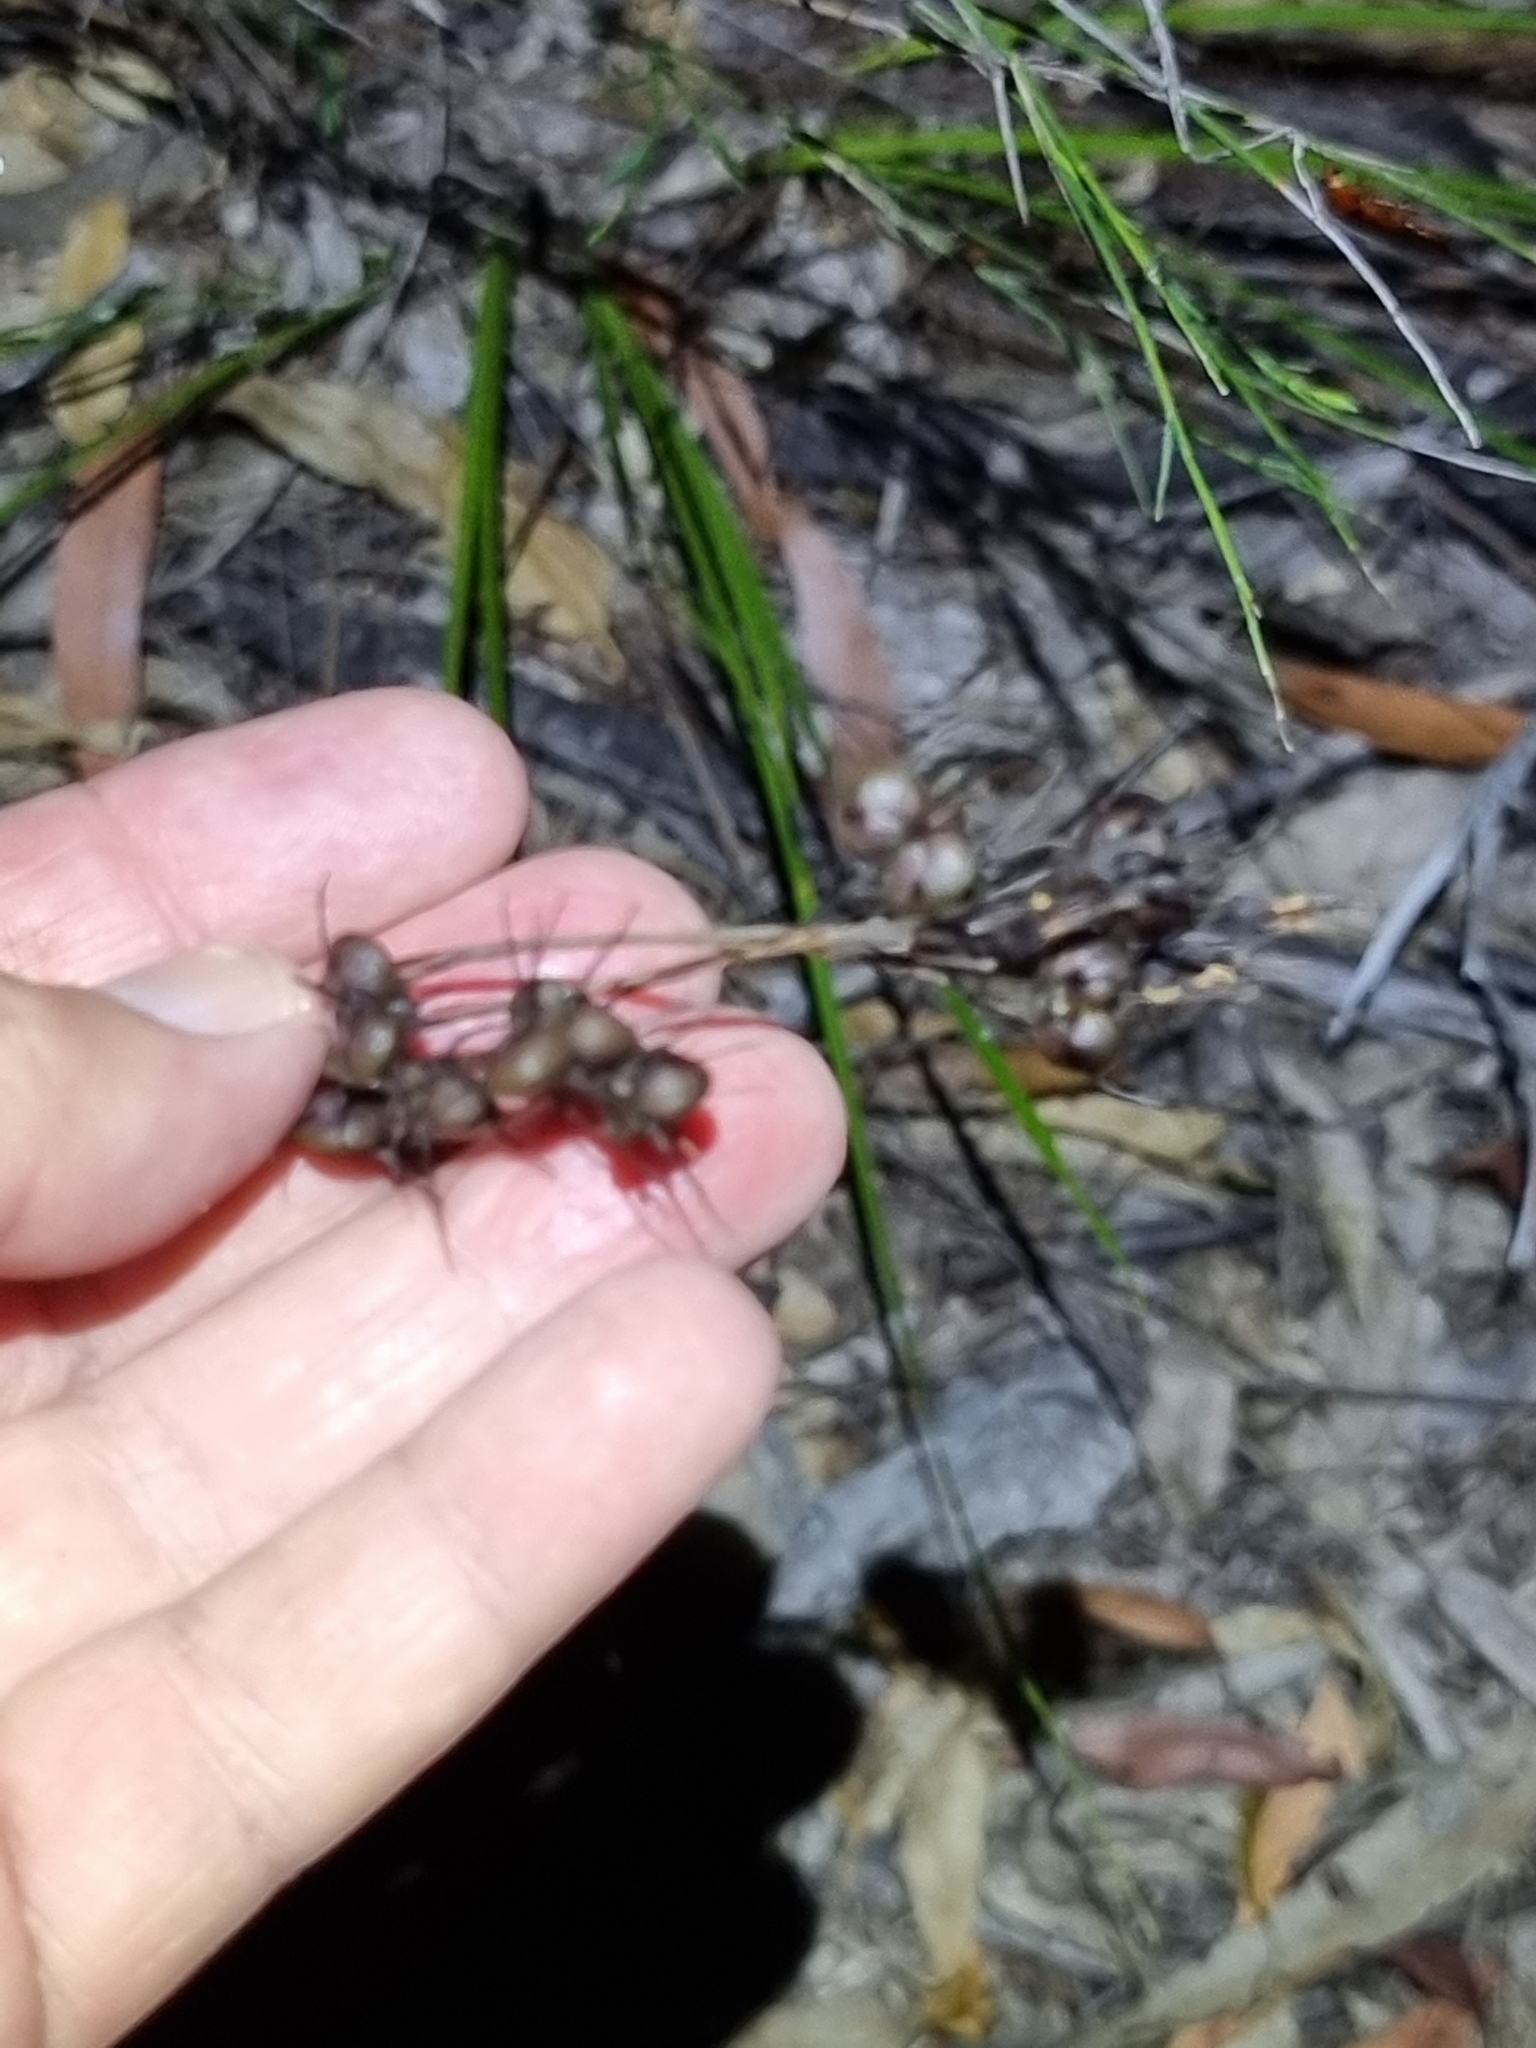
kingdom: Plantae
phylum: Tracheophyta
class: Liliopsida
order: Commelinales
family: Haemodoraceae
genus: Haemodorum
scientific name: Haemodorum austroqueenslandicum
